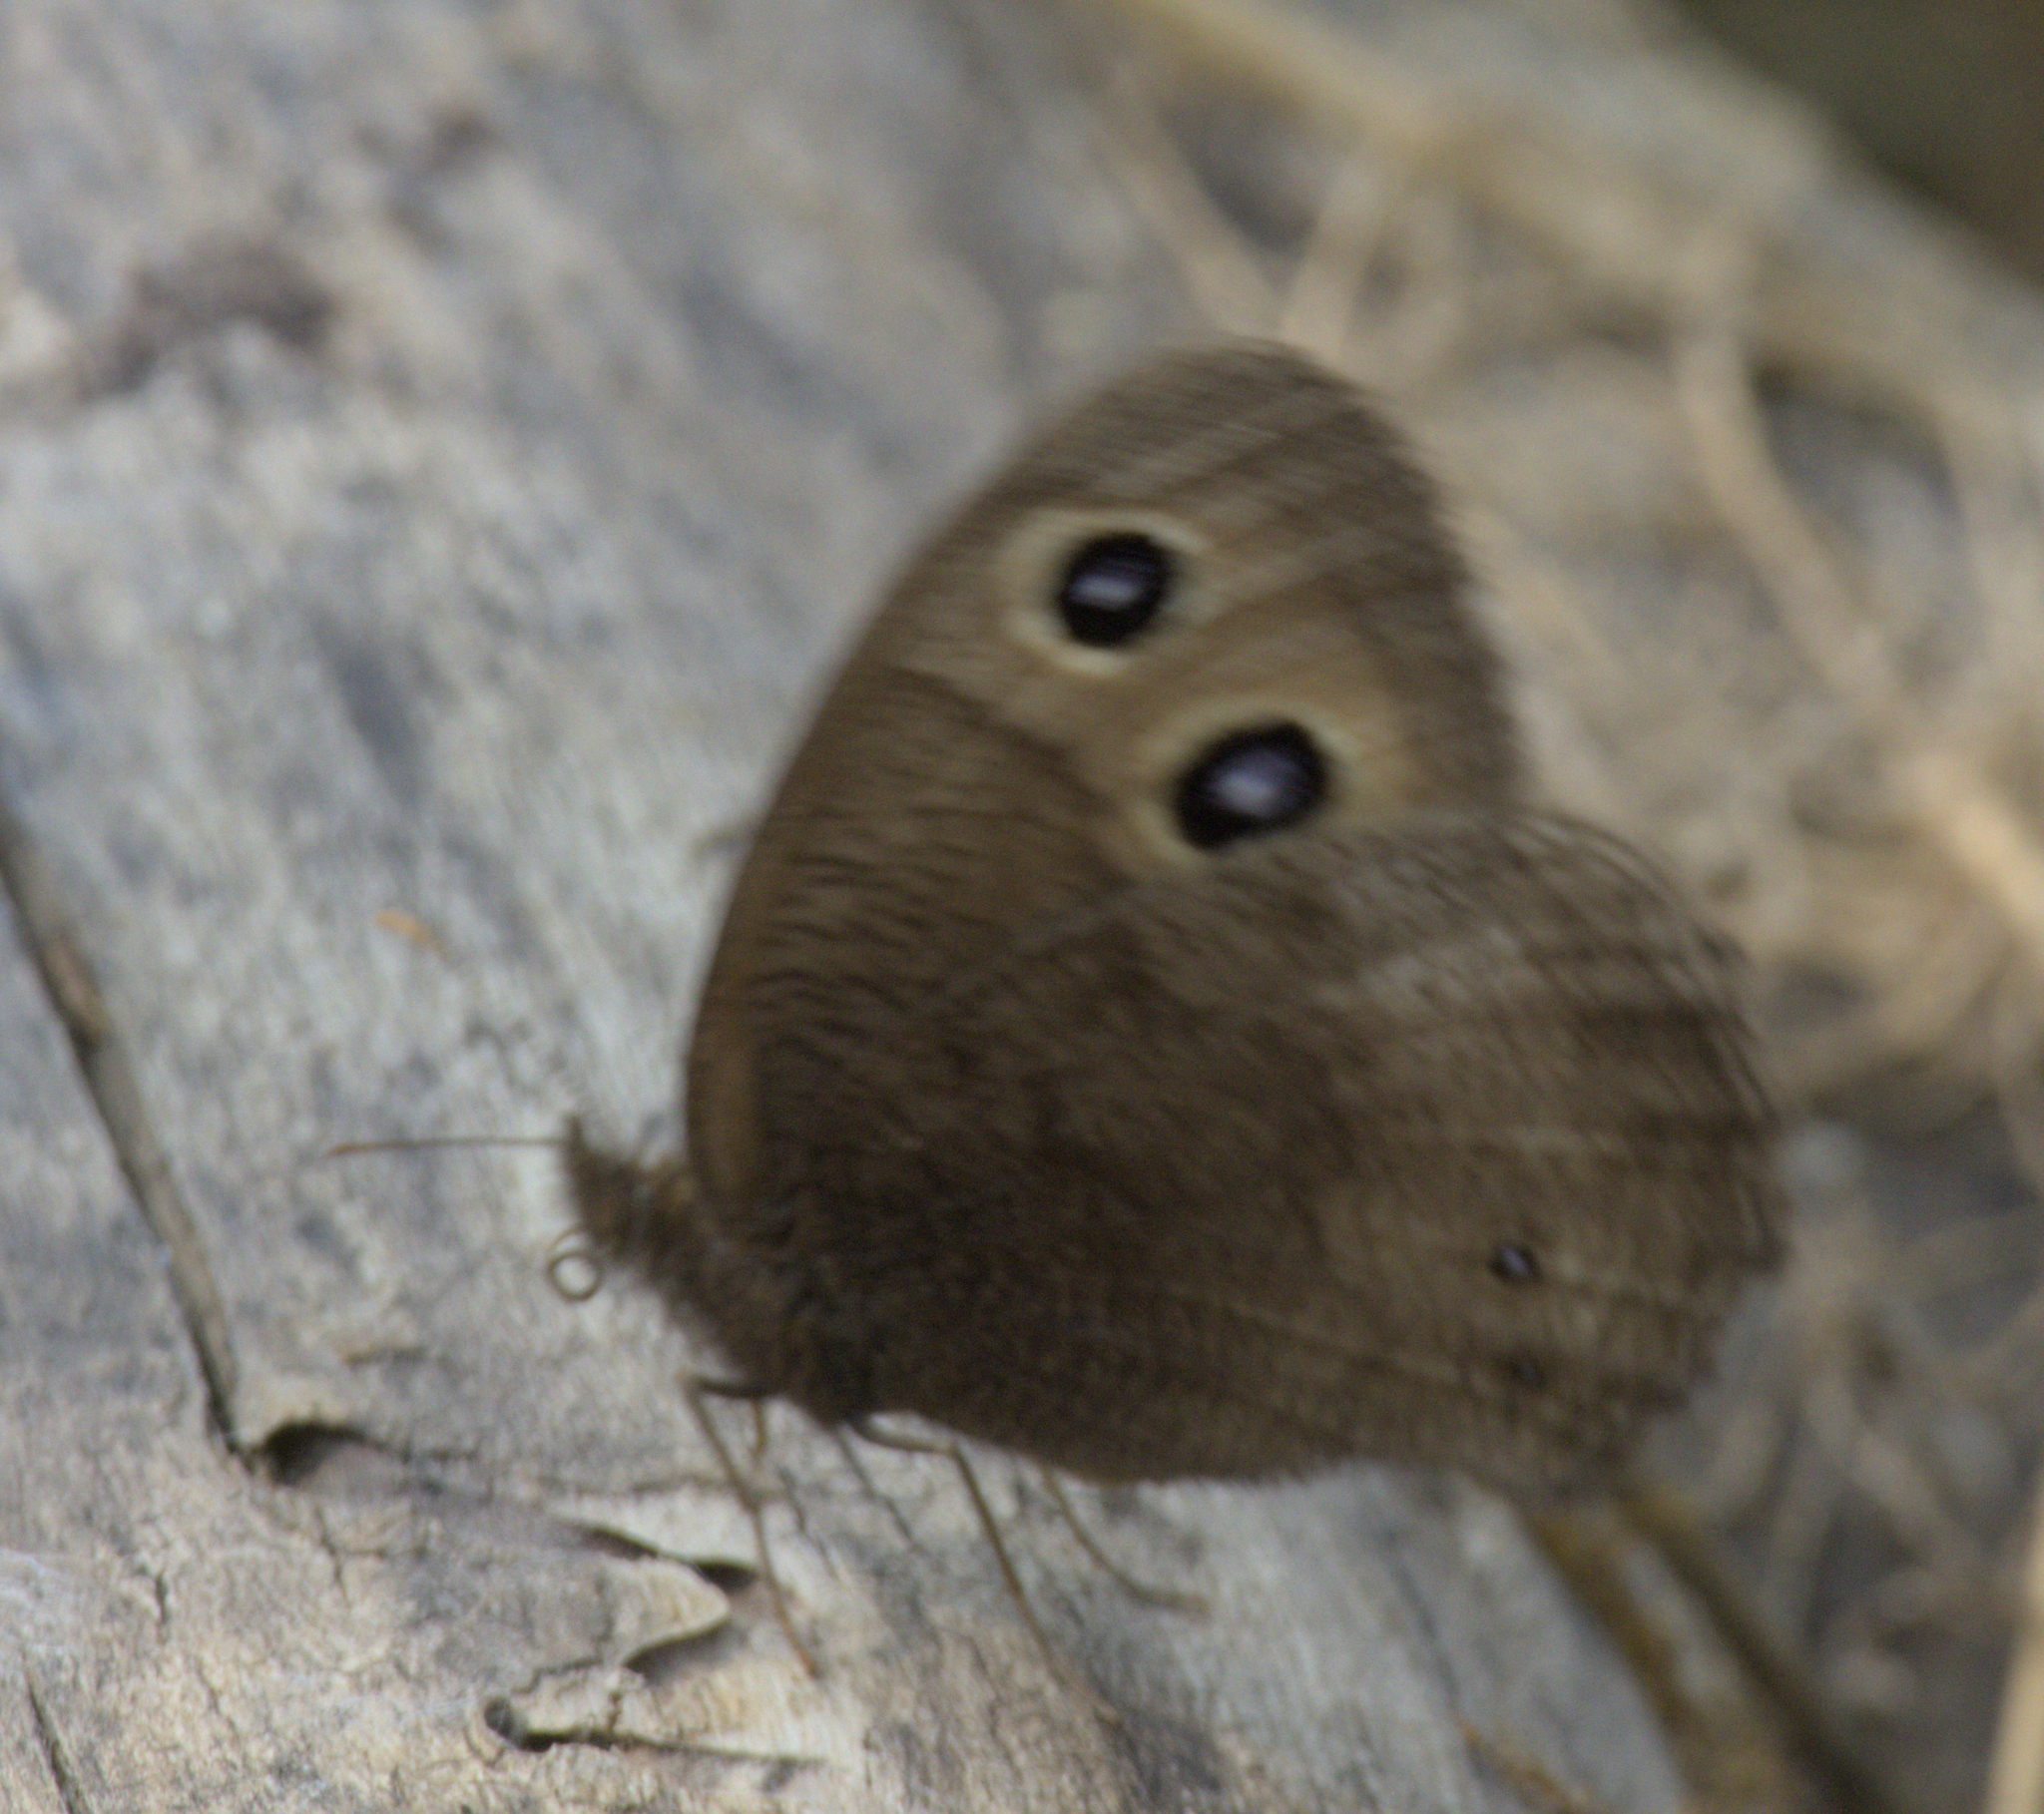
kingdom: Animalia
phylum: Arthropoda
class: Insecta
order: Lepidoptera
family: Nymphalidae
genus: Cercyonis
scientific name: Cercyonis pegala
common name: Common wood-nymph
